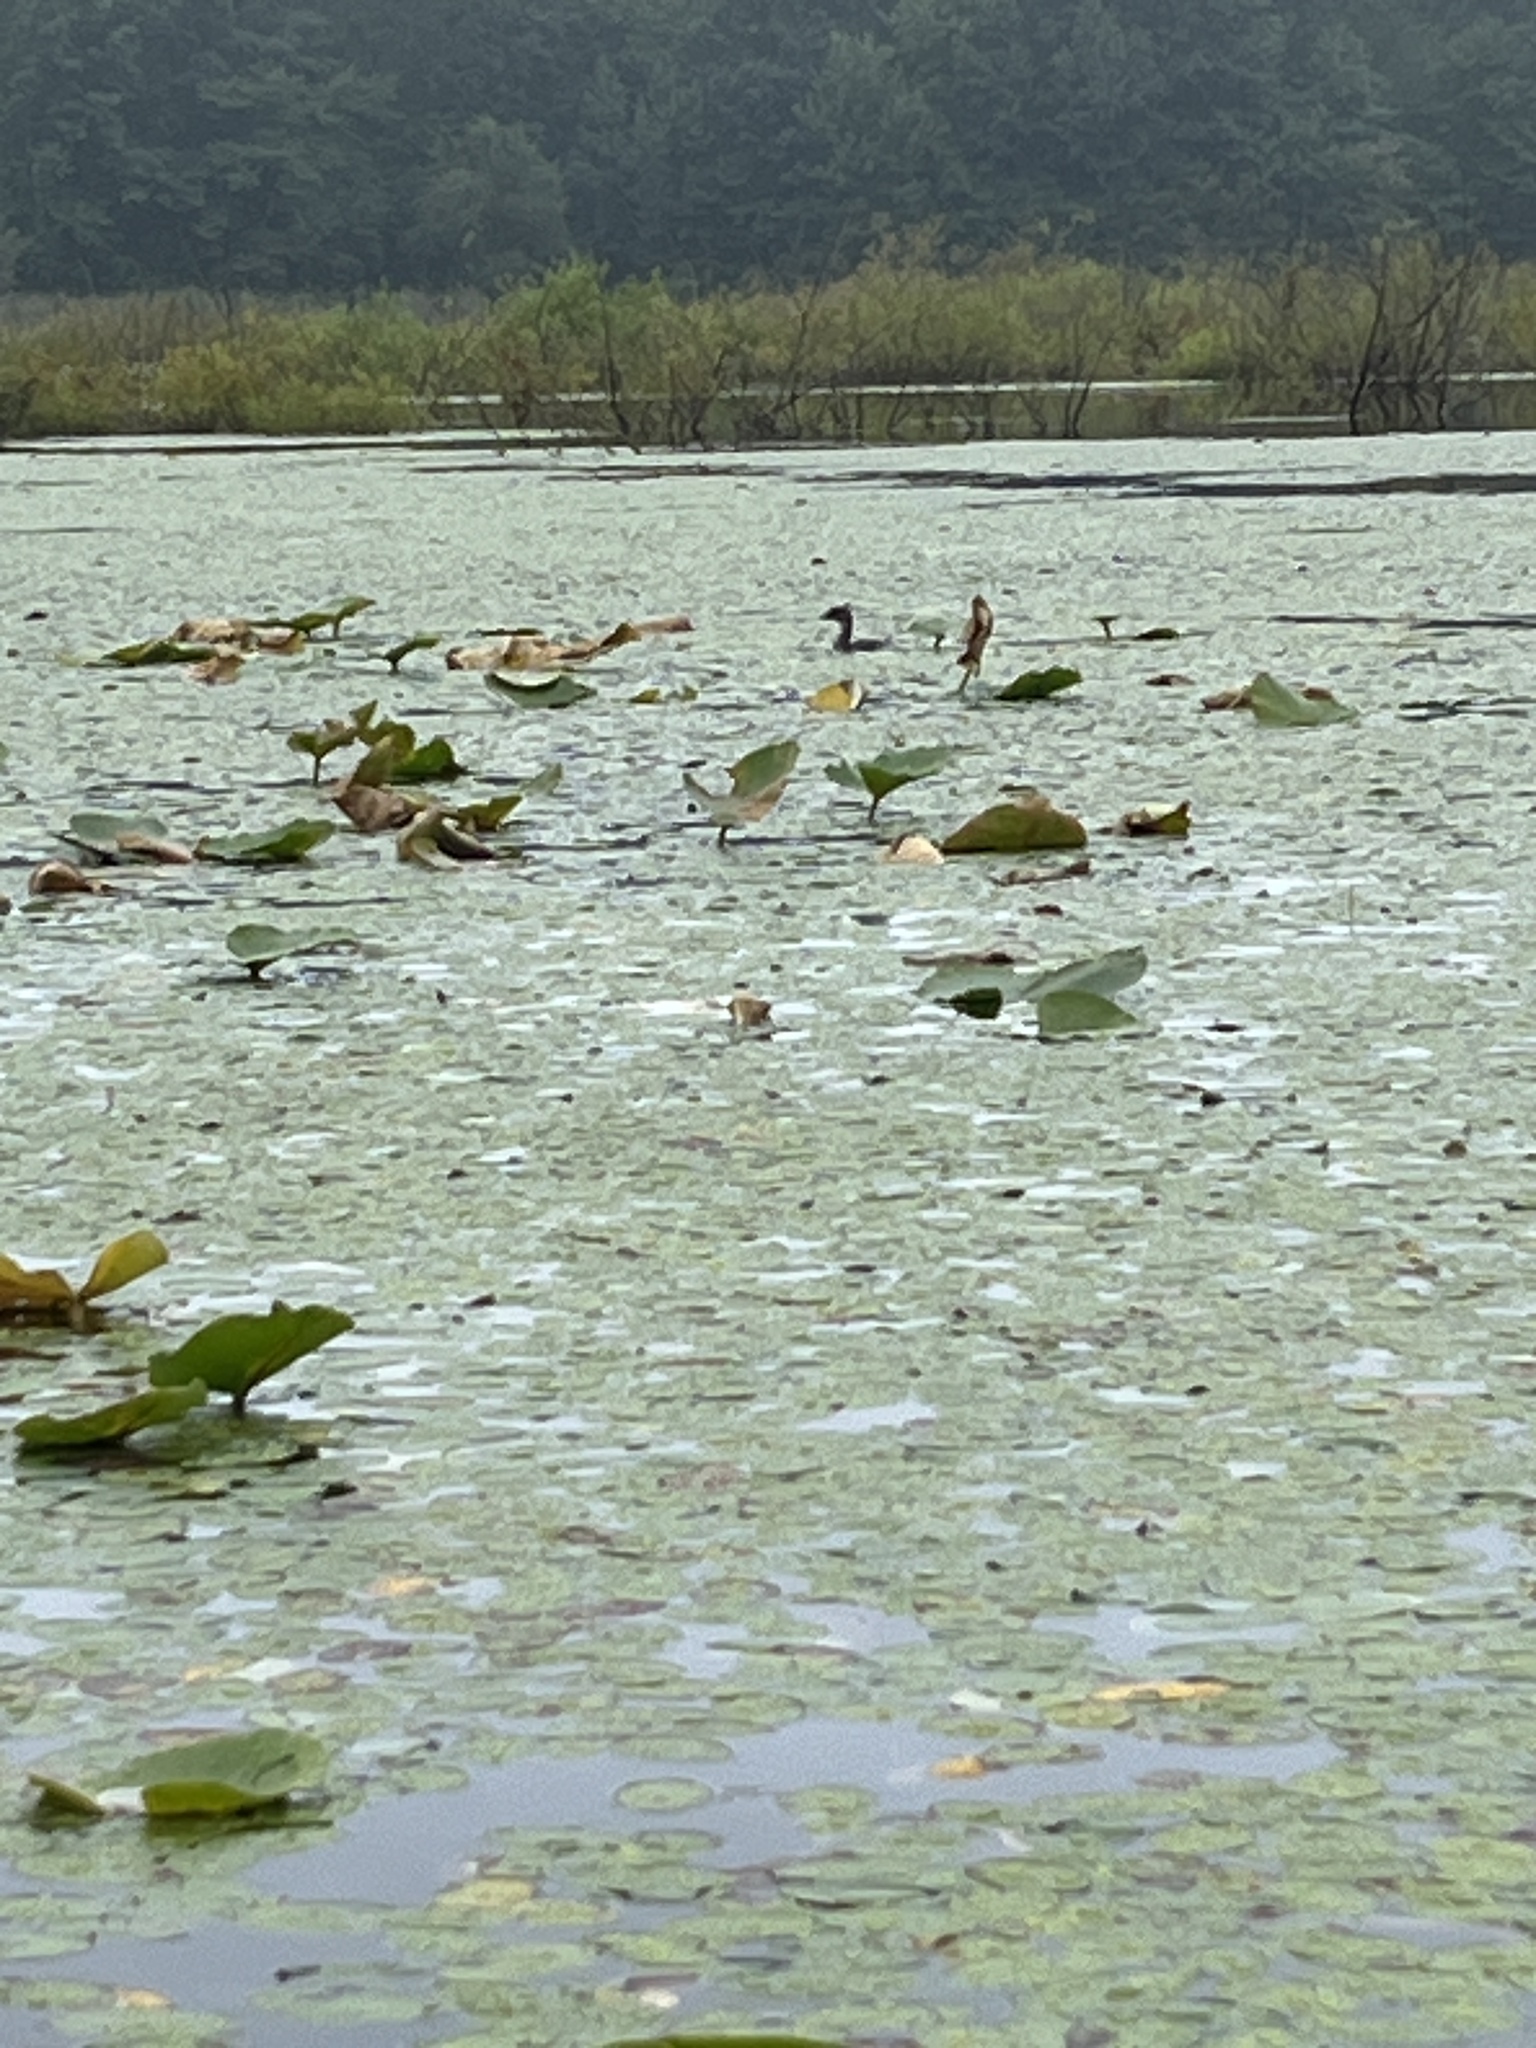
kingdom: Animalia
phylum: Chordata
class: Aves
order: Podicipediformes
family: Podicipedidae
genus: Podilymbus
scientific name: Podilymbus podiceps
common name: Pied-billed grebe
